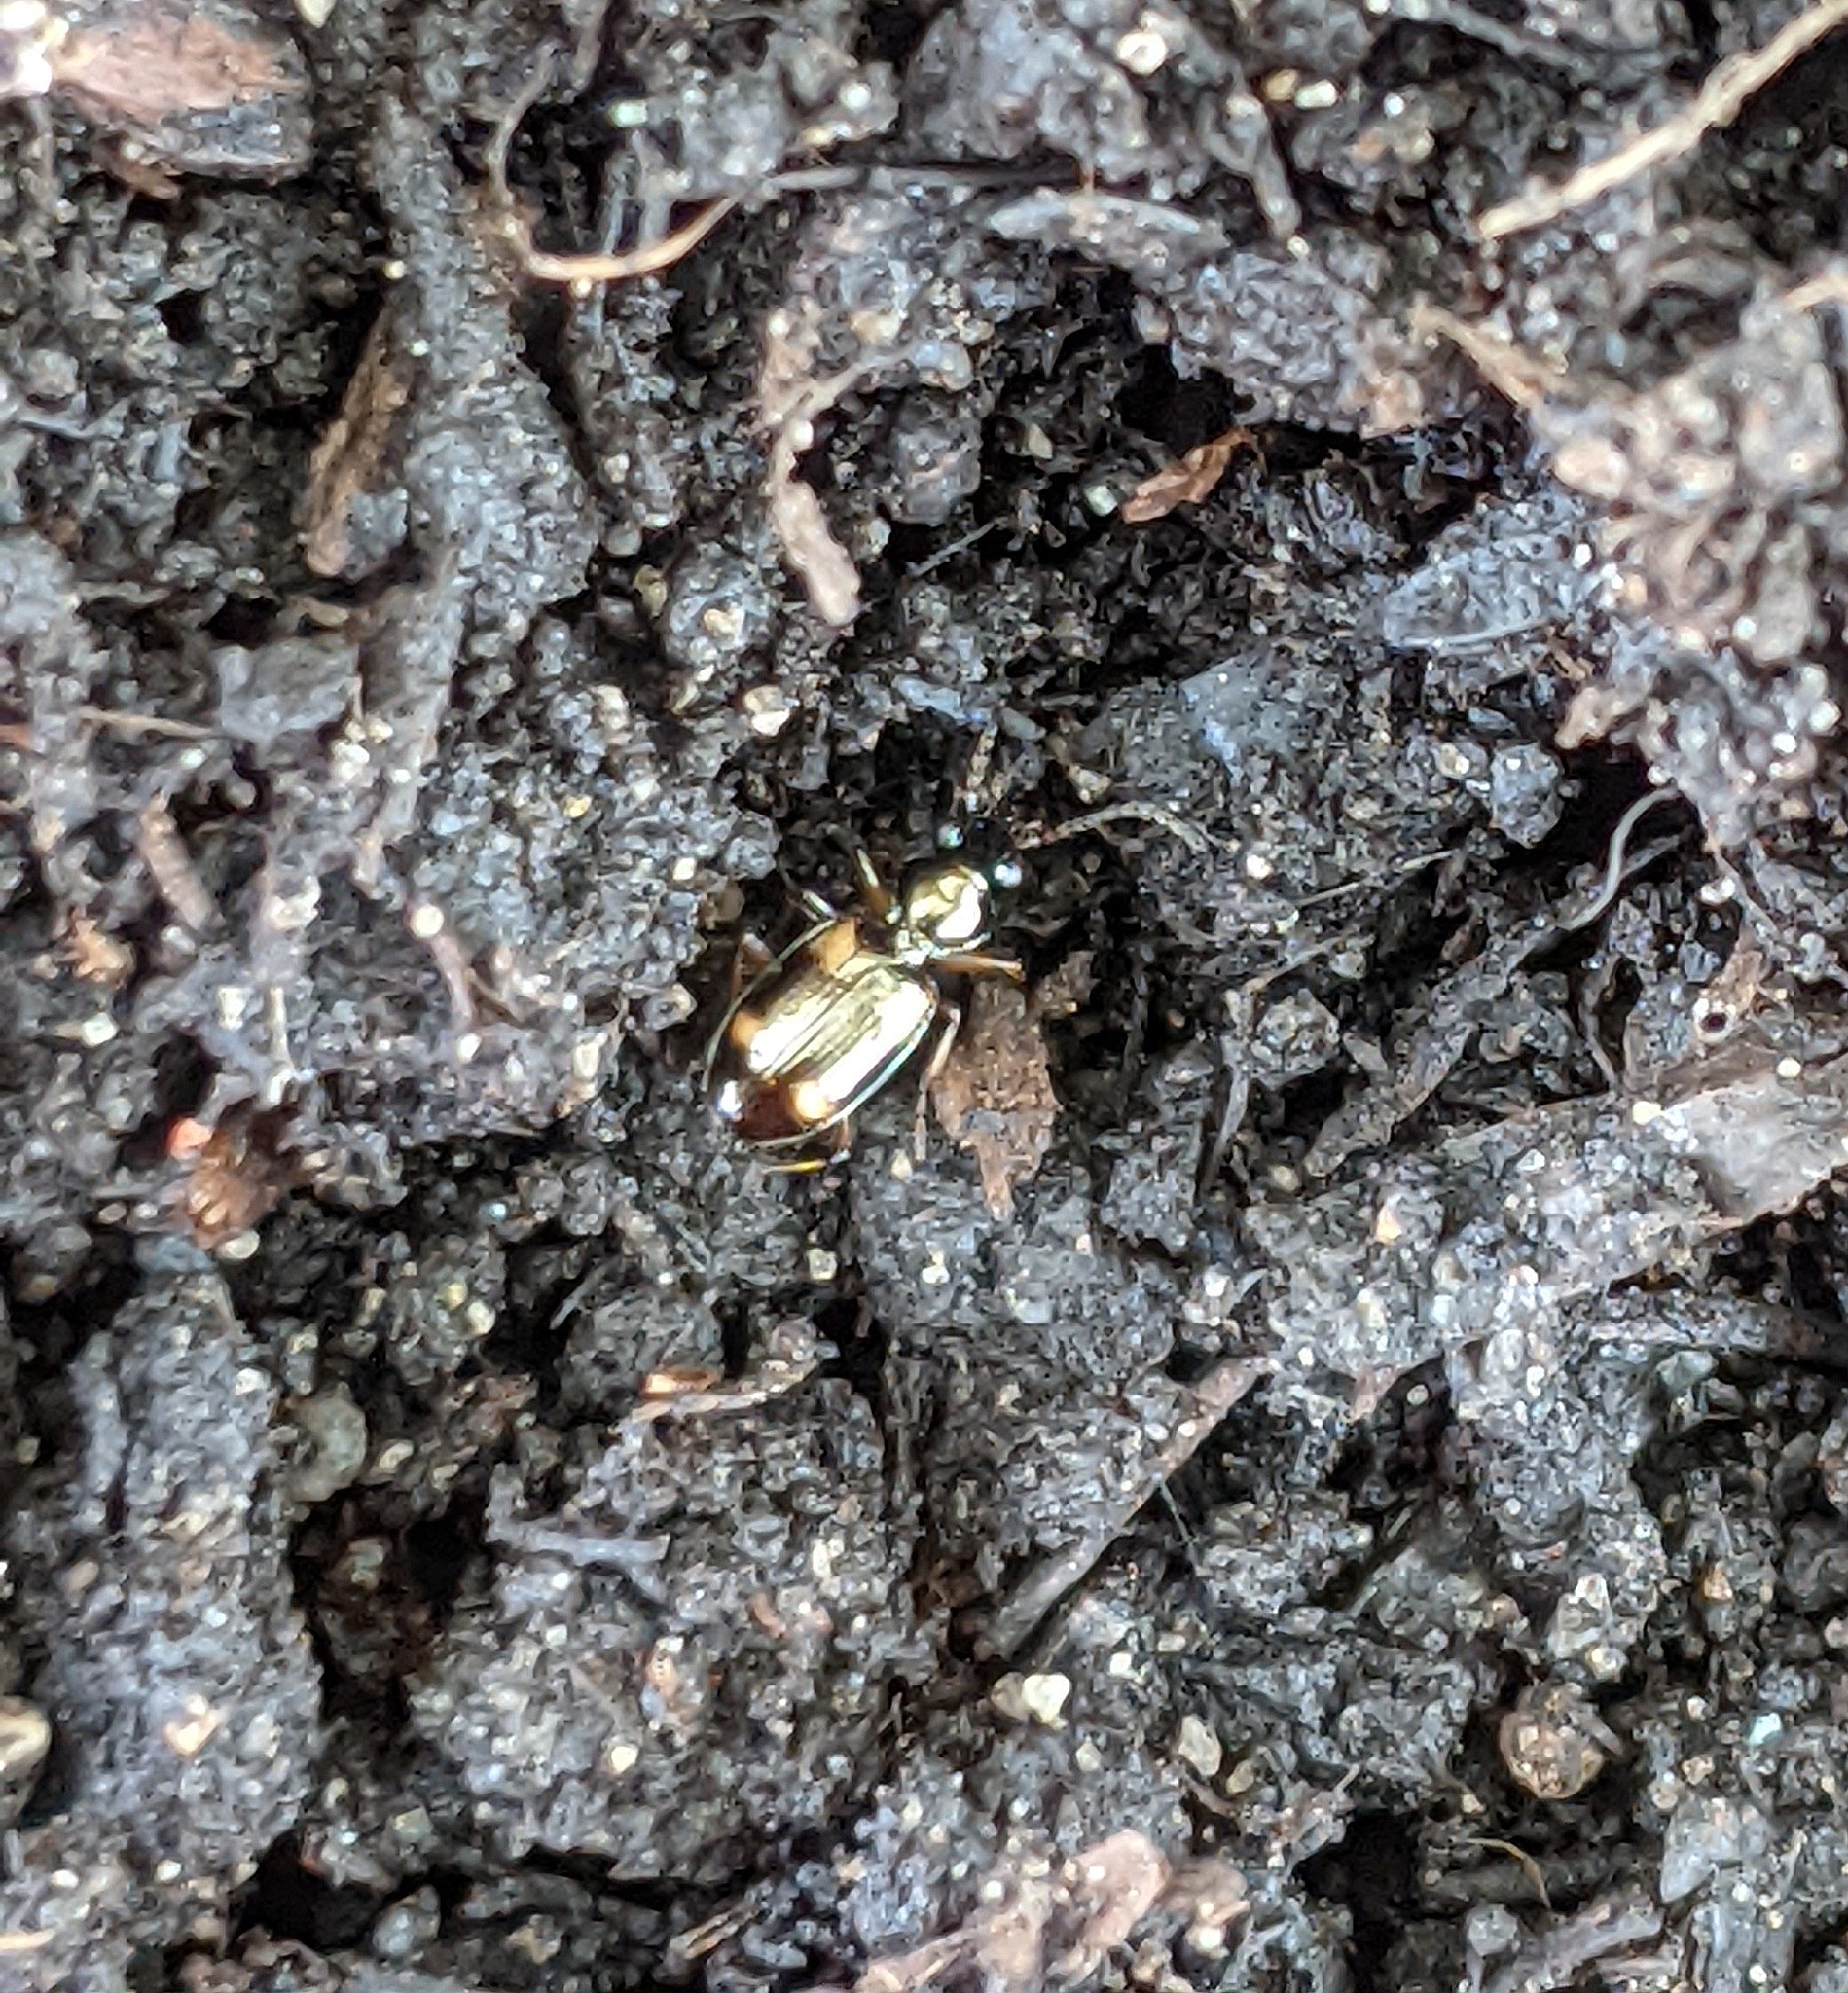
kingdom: Animalia
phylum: Arthropoda
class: Insecta
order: Coleoptera
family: Carabidae
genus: Bembidion
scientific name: Bembidion quadrimaculatum
